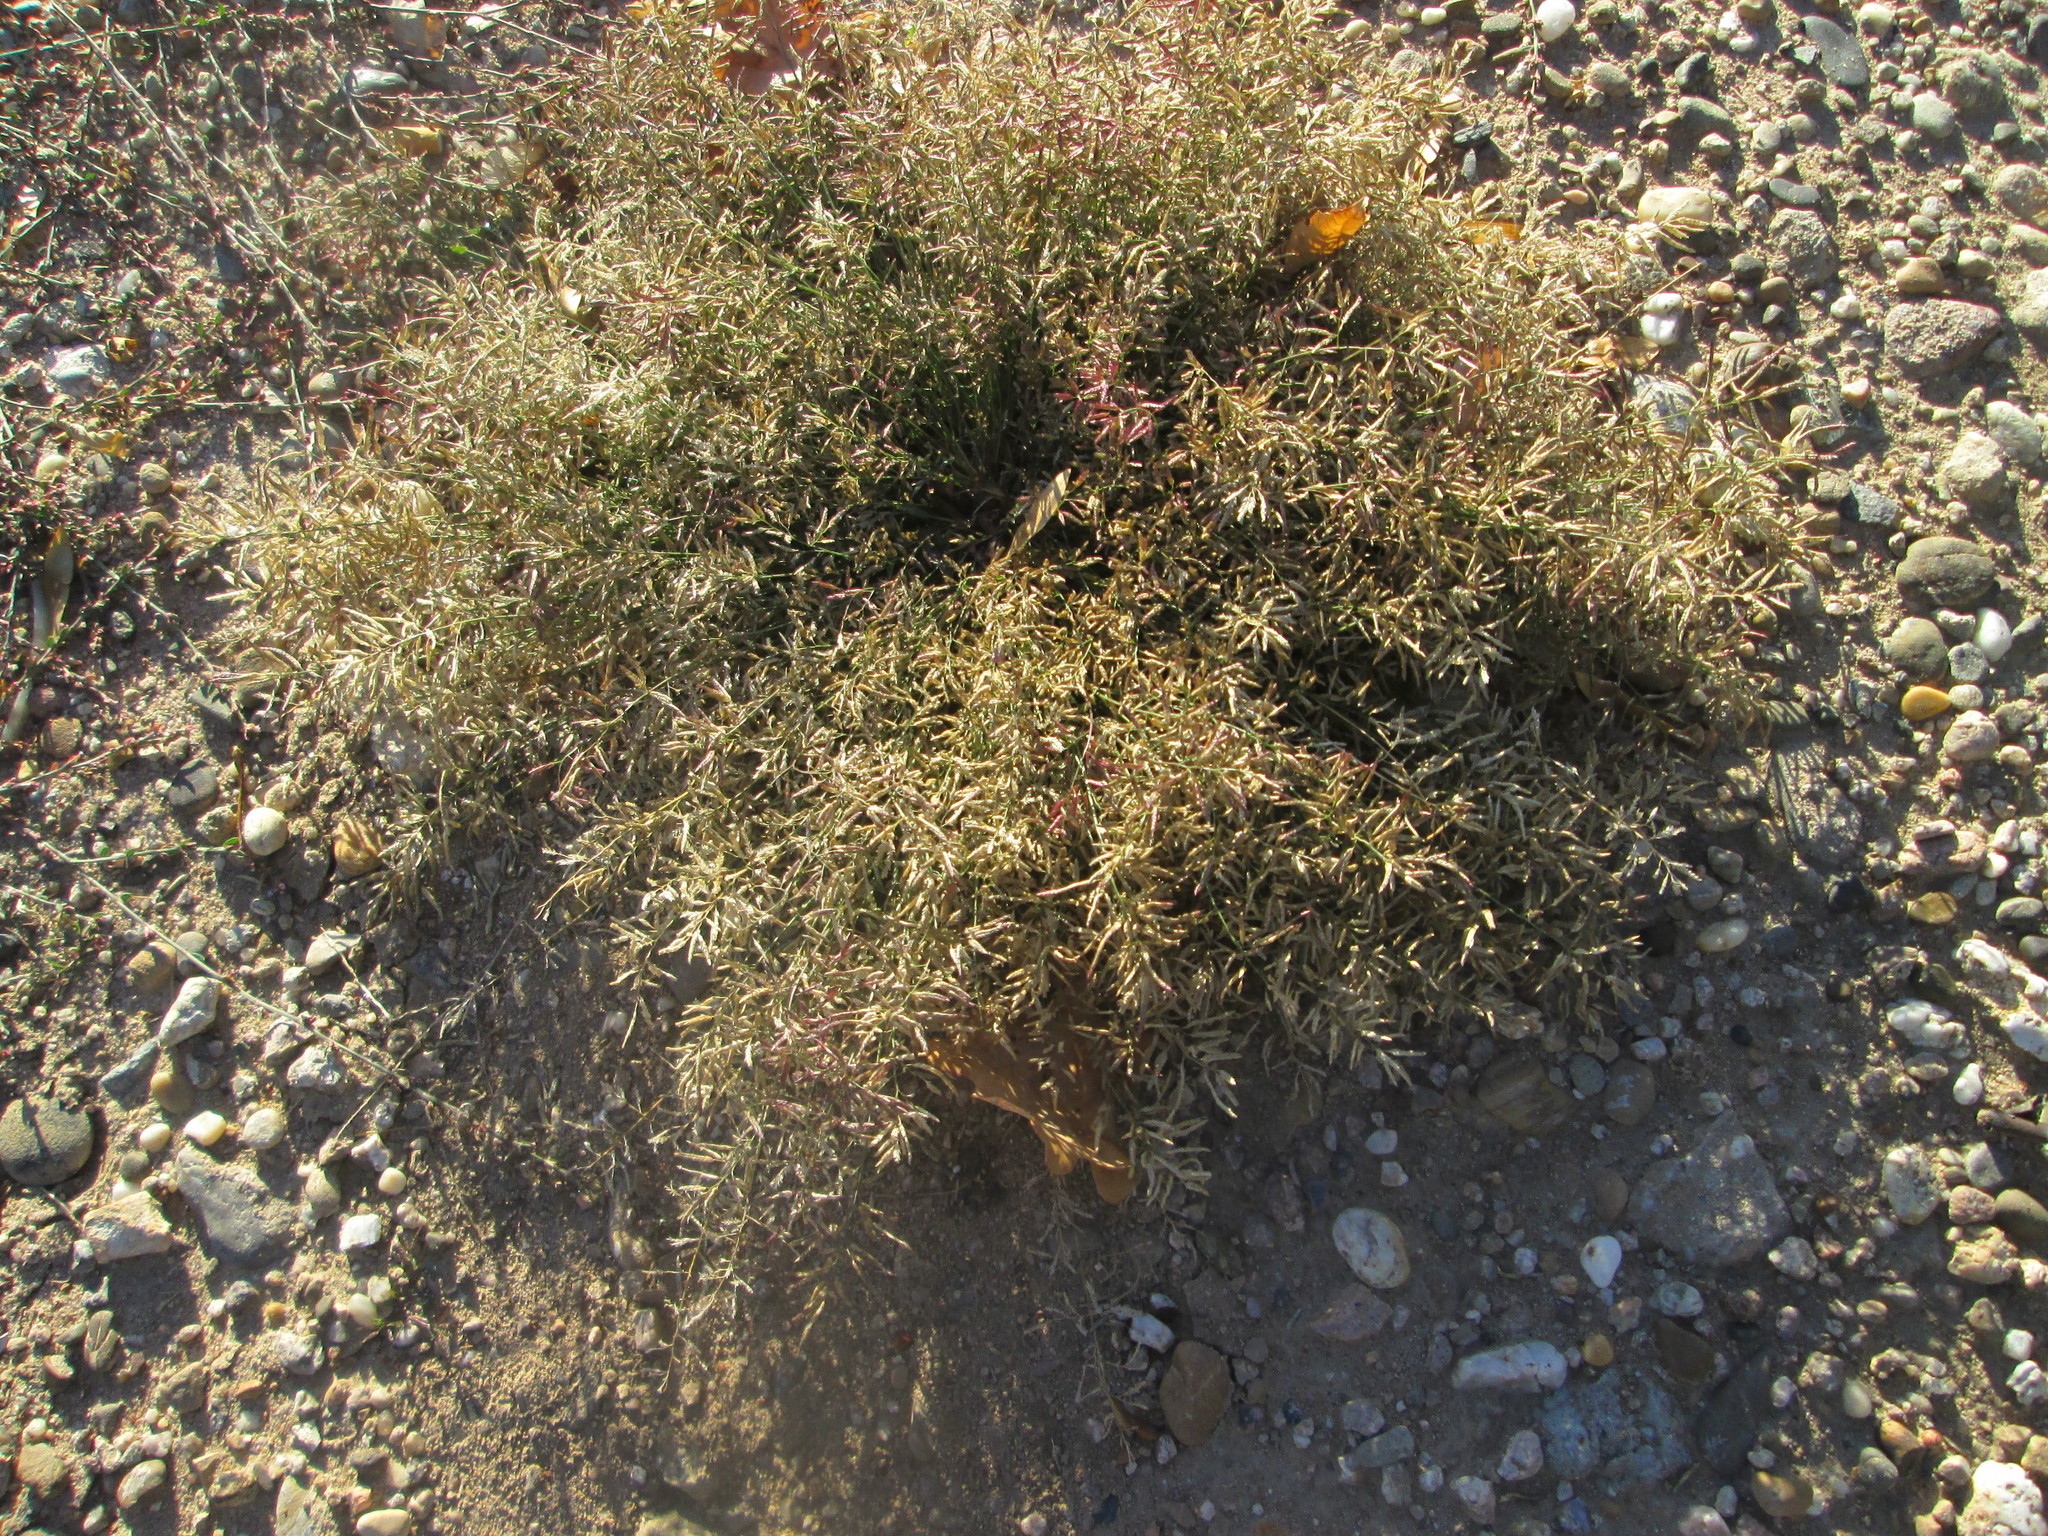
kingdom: Plantae
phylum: Tracheophyta
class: Liliopsida
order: Poales
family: Poaceae
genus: Eragrostis
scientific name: Eragrostis minor
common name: Small love-grass
